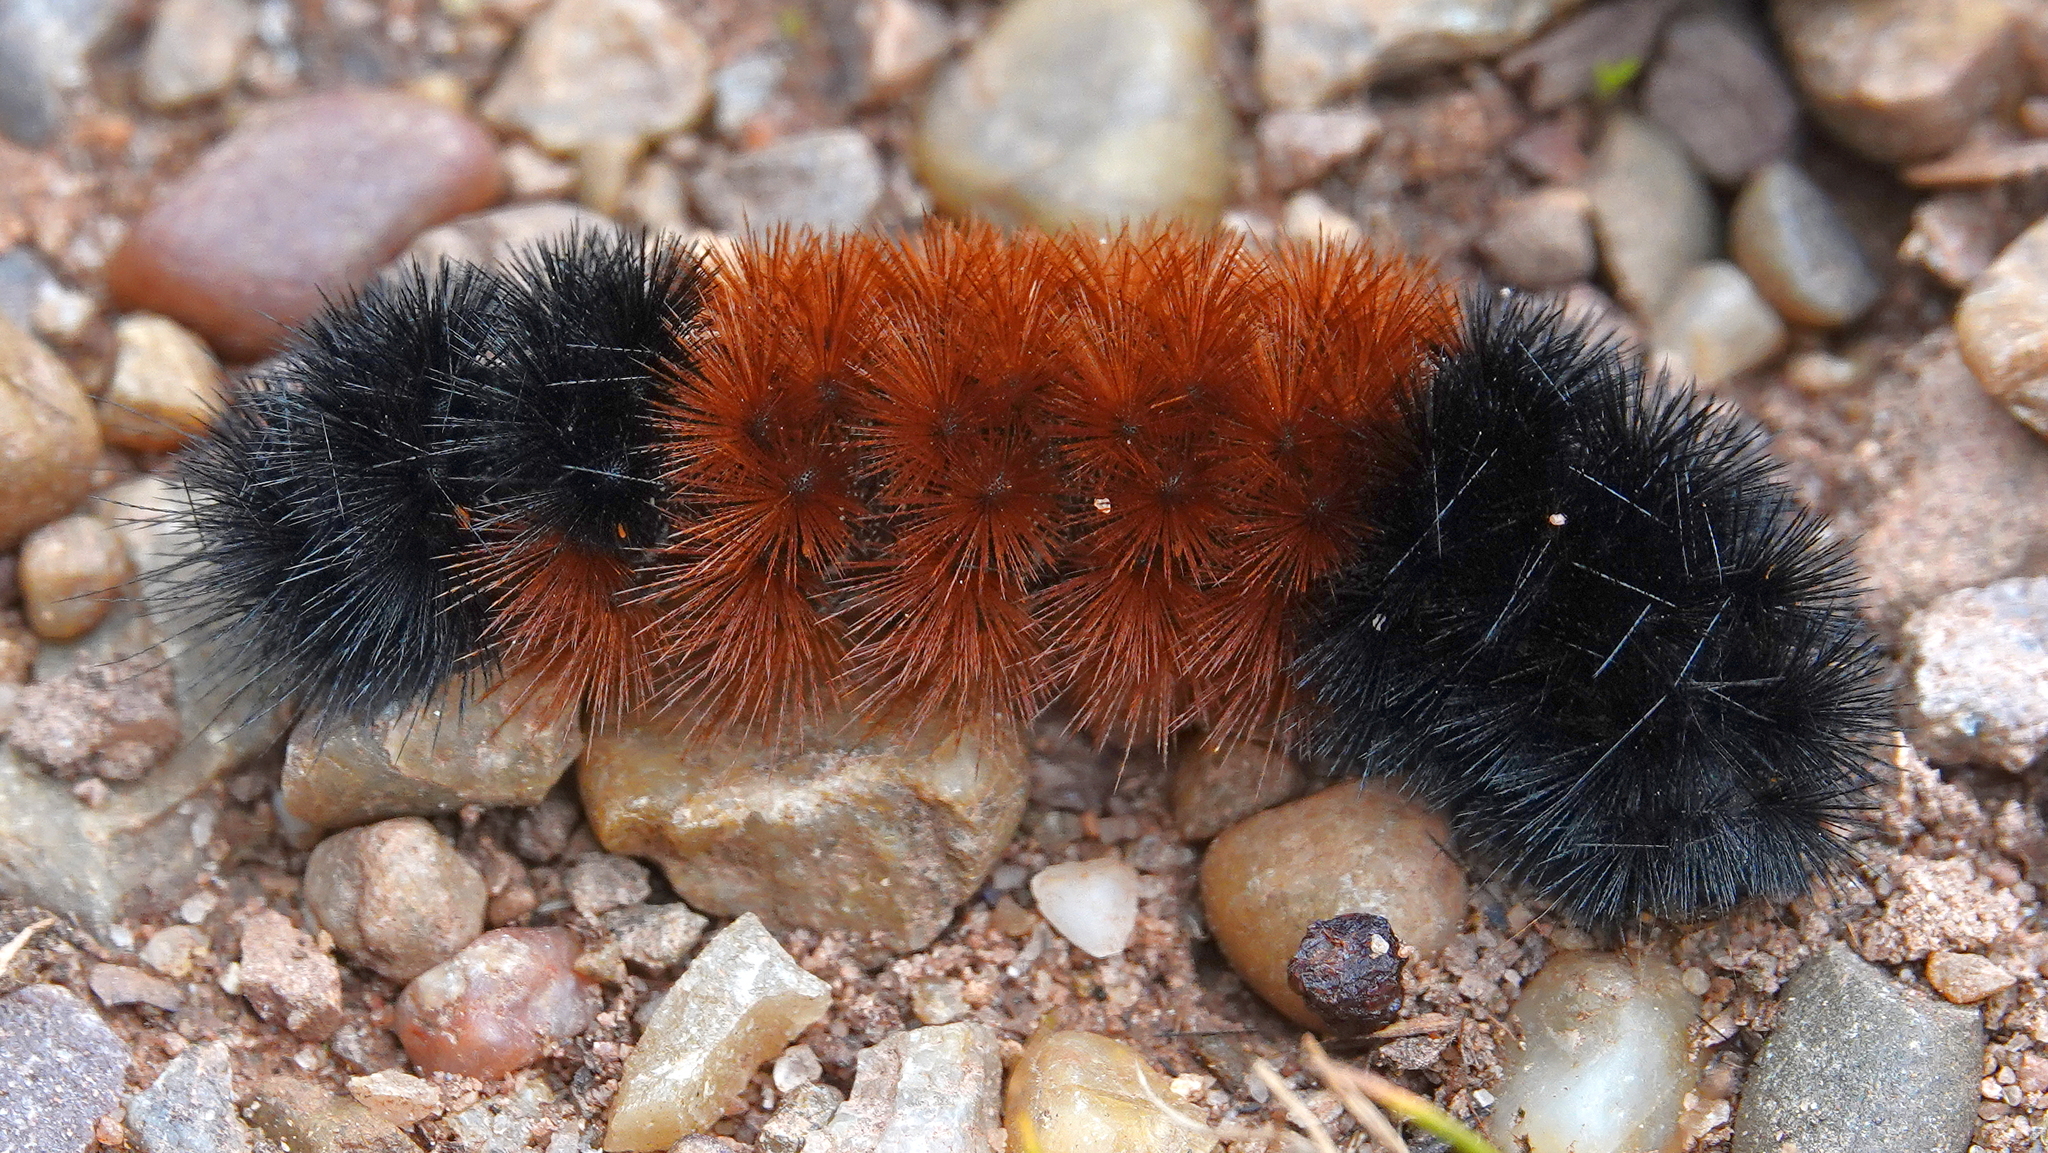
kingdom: Animalia
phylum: Arthropoda
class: Insecta
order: Lepidoptera
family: Erebidae
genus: Pyrrharctia
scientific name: Pyrrharctia isabella
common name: Isabella tiger moth
